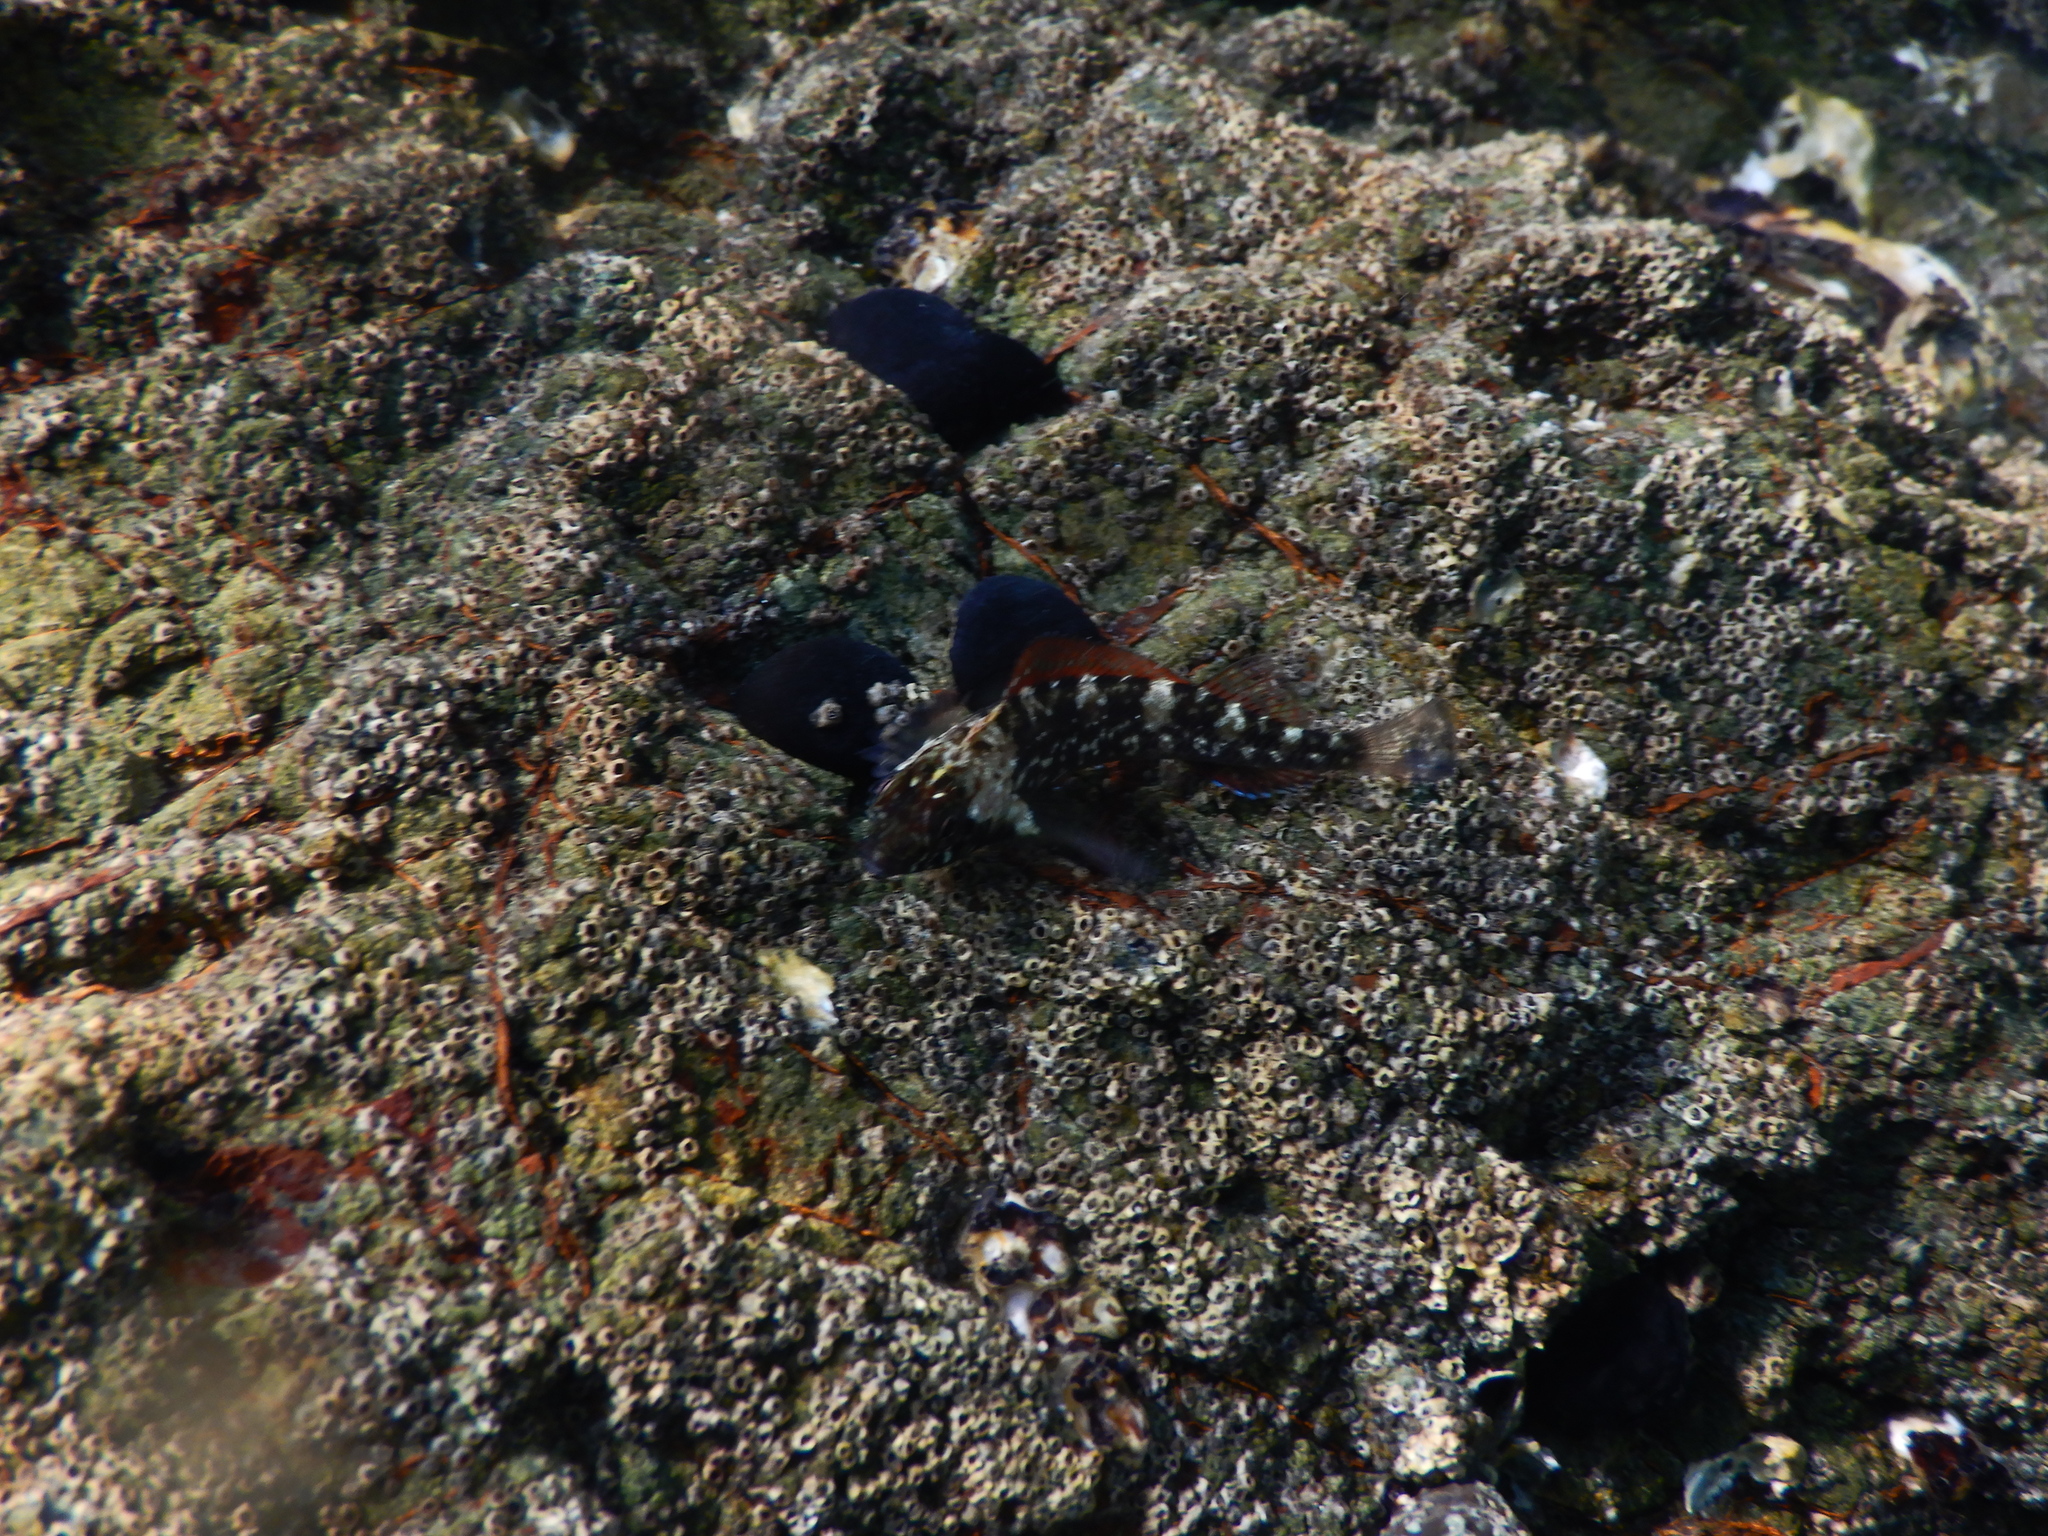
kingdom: Animalia
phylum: Chordata
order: Perciformes
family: Tripterygiidae
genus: Forsterygion
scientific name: Forsterygion lapillum
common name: Common triplefin
